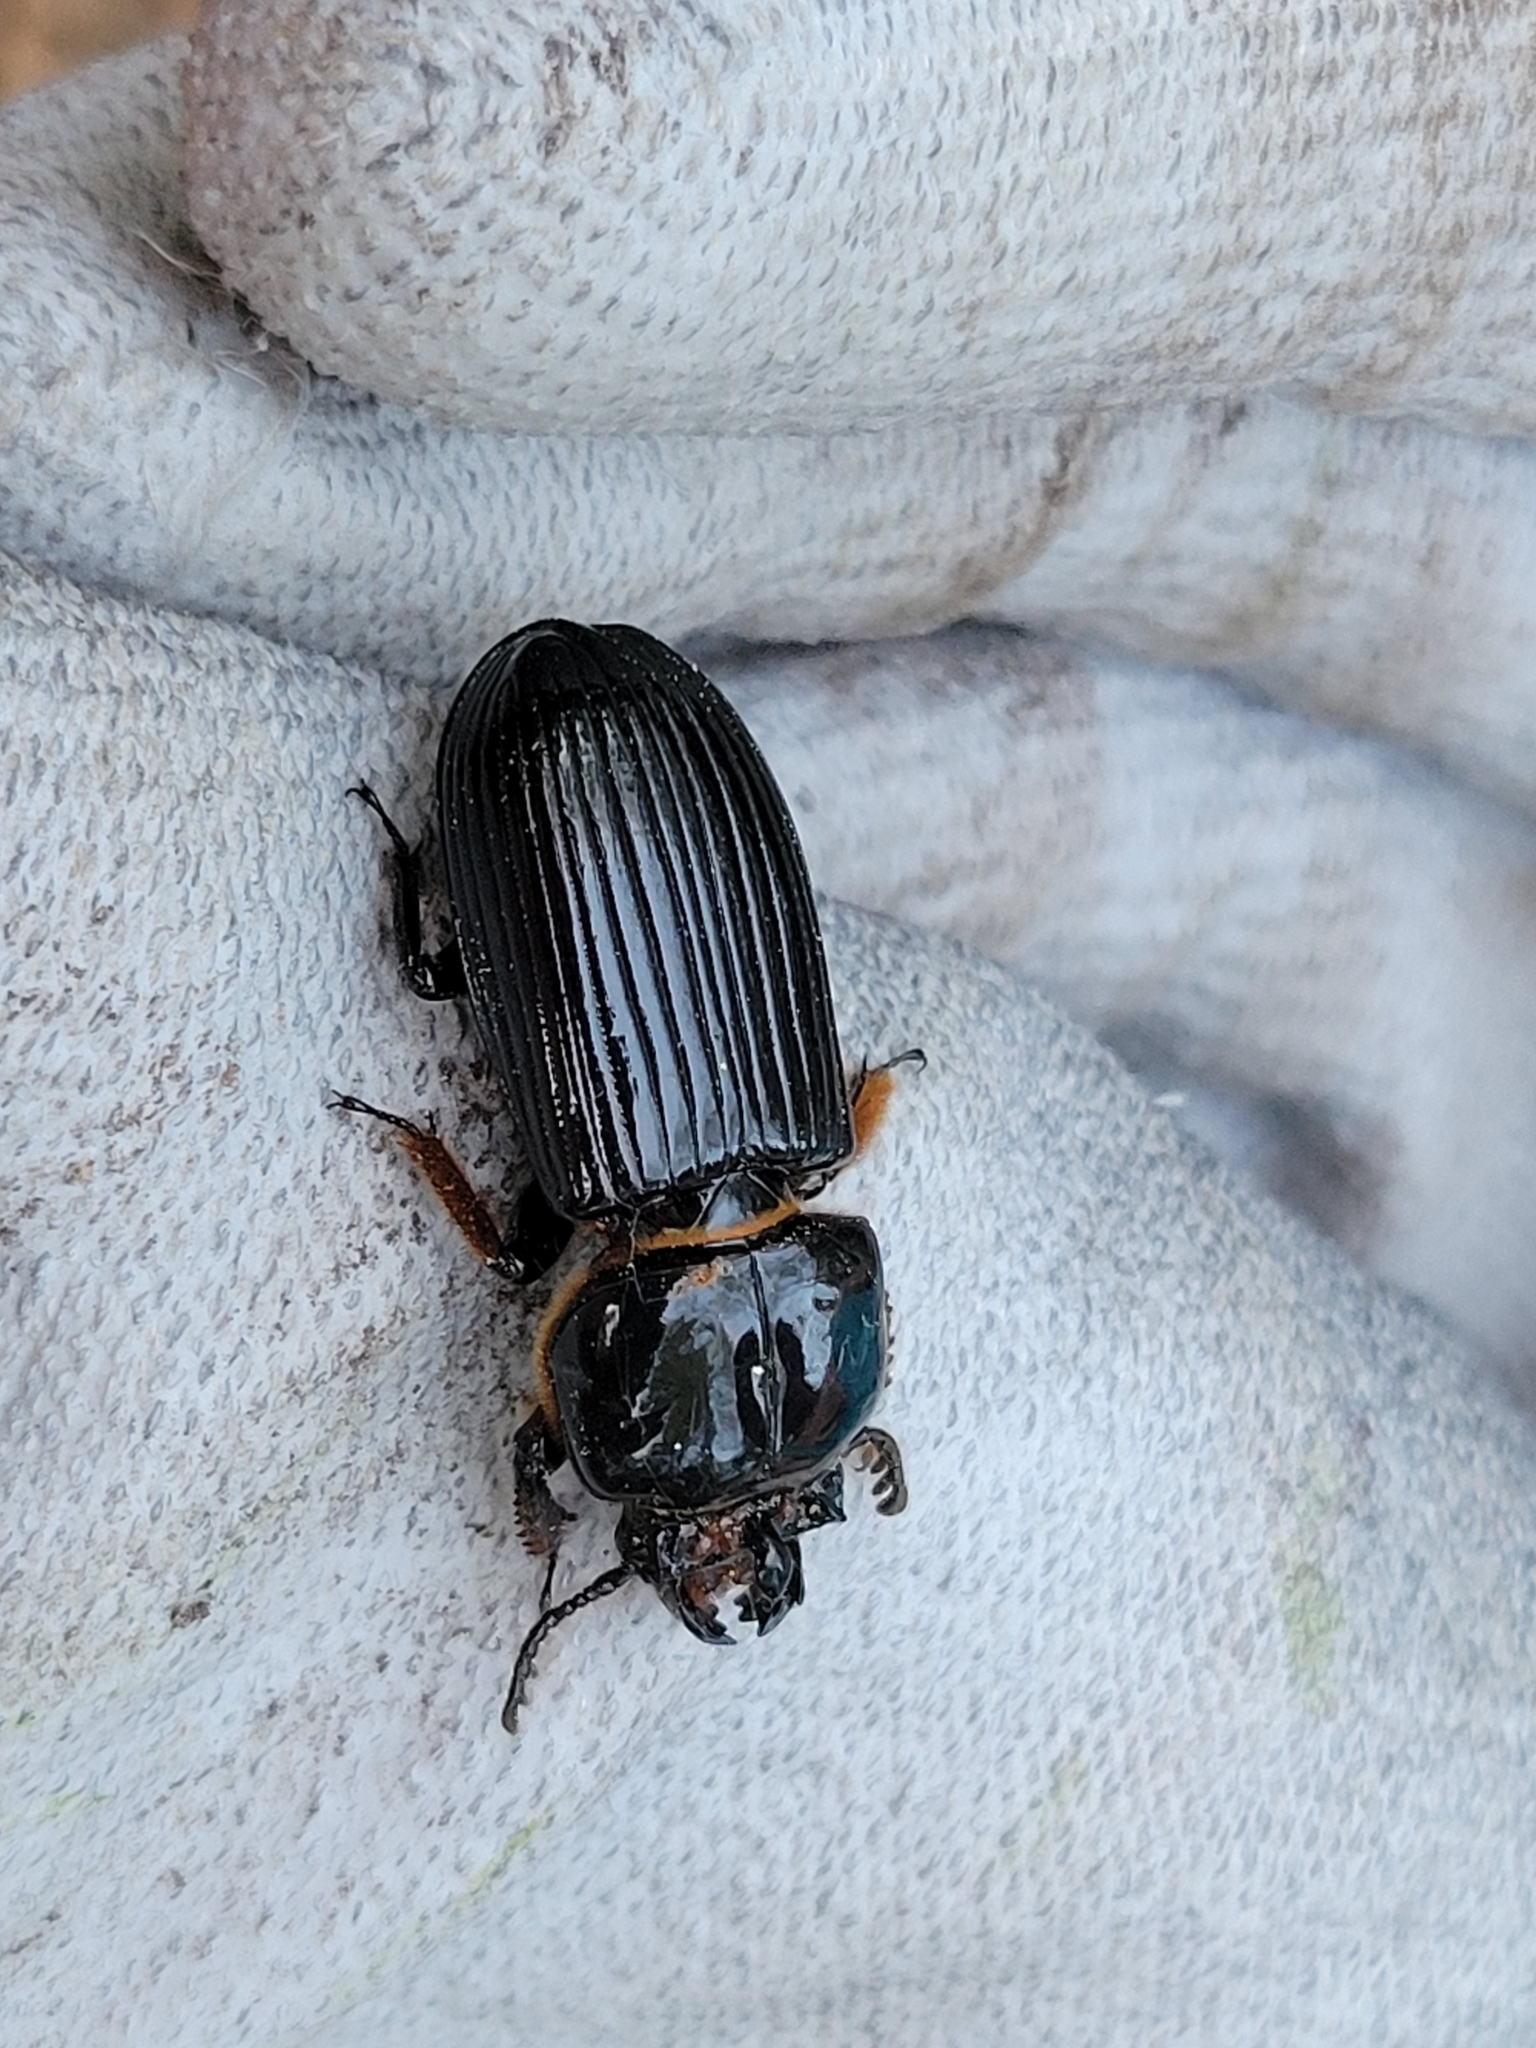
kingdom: Animalia
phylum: Arthropoda
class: Insecta
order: Coleoptera
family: Passalidae
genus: Odontotaenius
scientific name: Odontotaenius disjunctus
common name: Patent leather beetle
